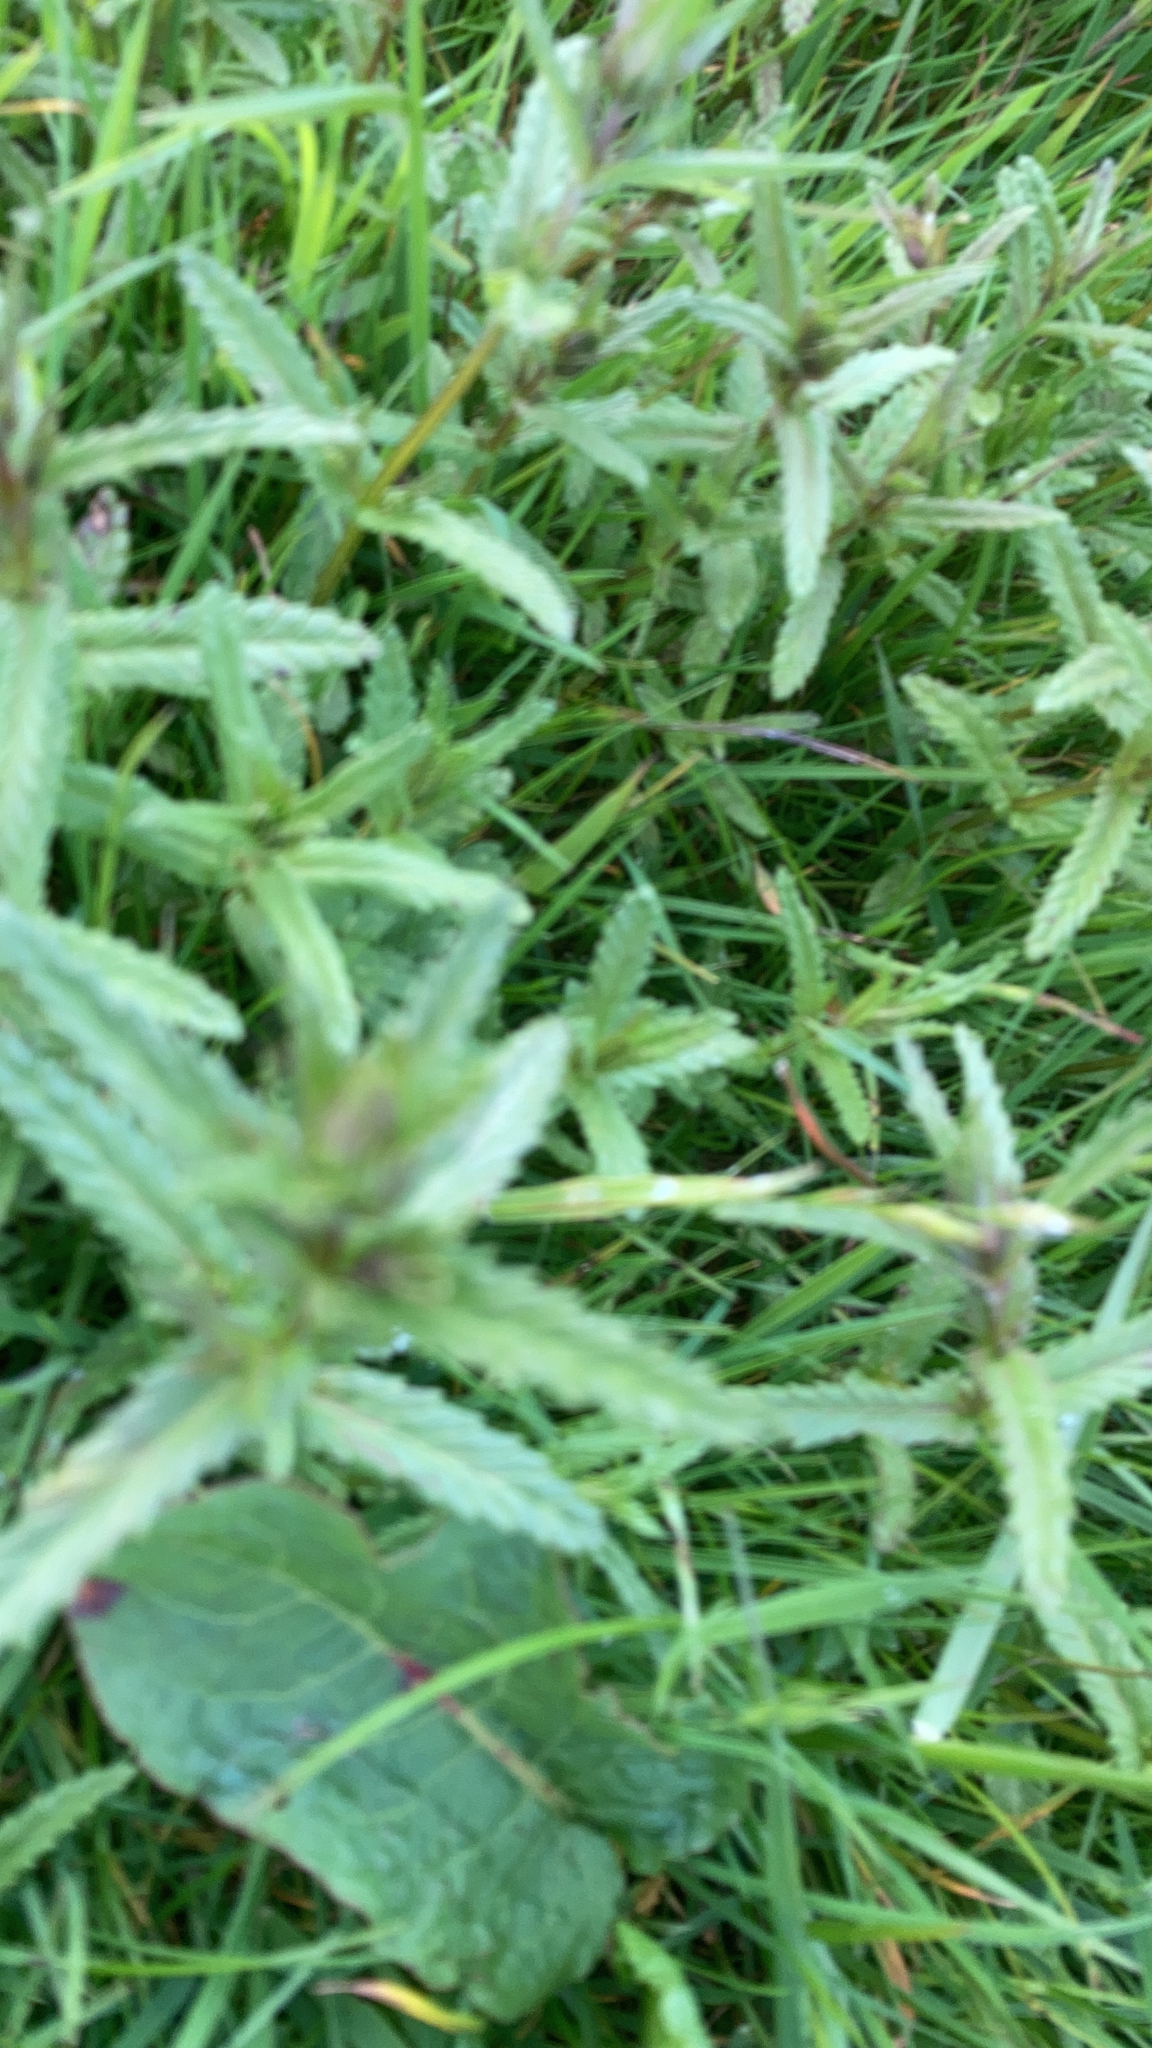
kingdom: Plantae
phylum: Tracheophyta
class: Magnoliopsida
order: Lamiales
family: Orobanchaceae
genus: Rhinanthus
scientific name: Rhinanthus minor
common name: Yellow-rattle
